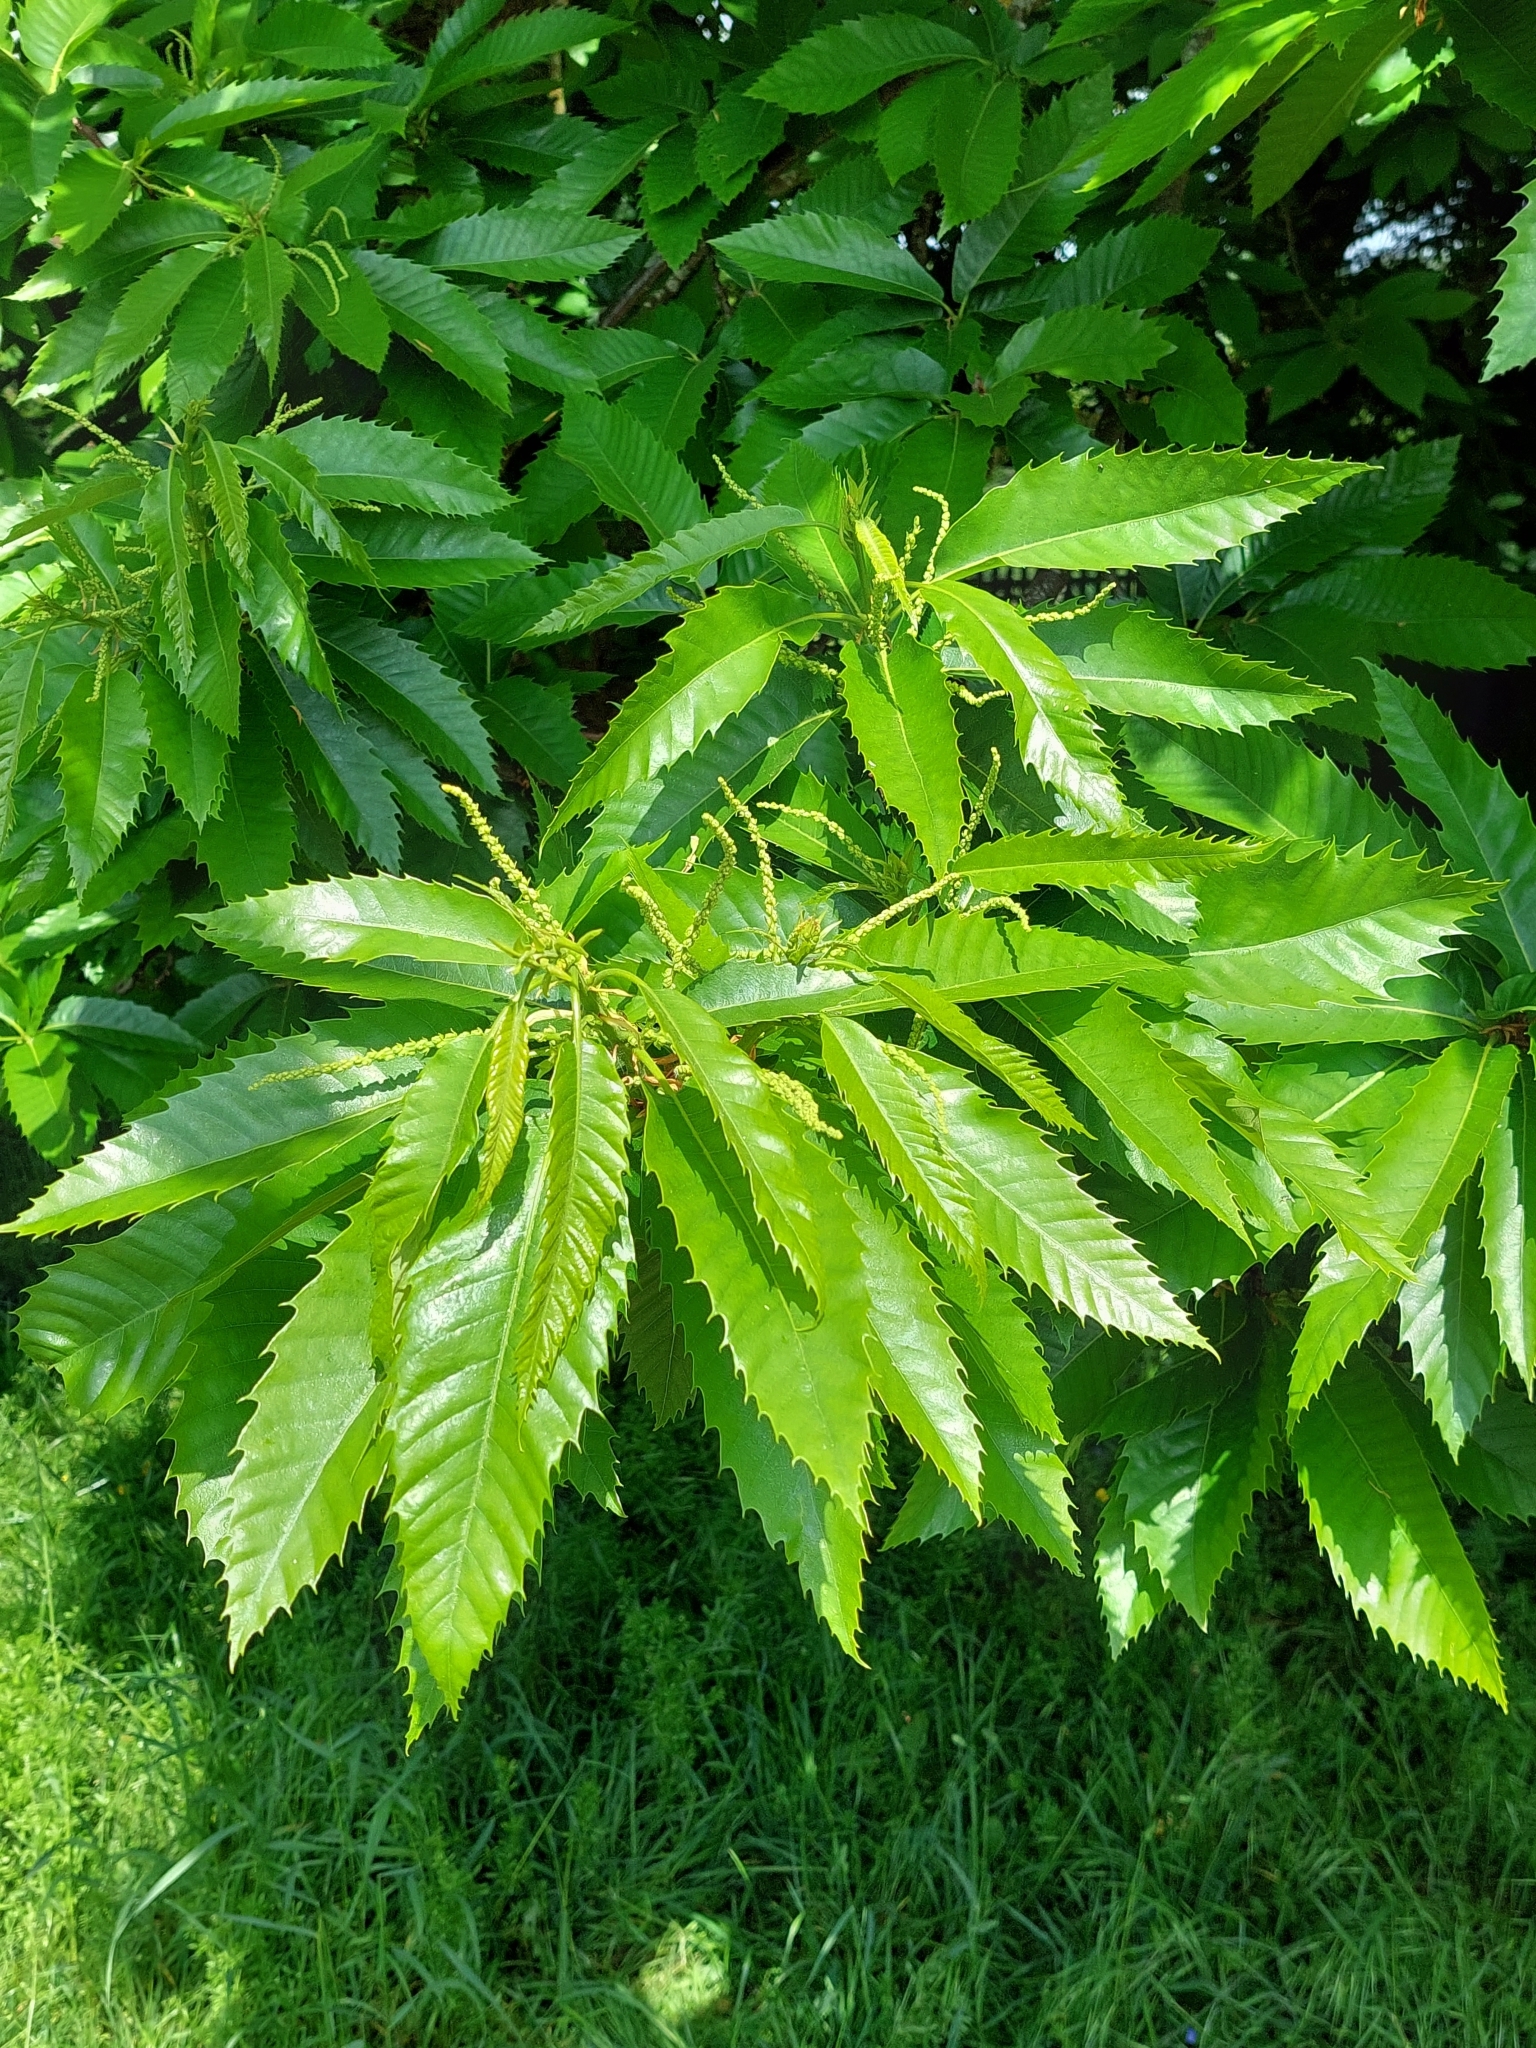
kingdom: Plantae
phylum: Tracheophyta
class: Magnoliopsida
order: Fagales
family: Fagaceae
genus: Castanea
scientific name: Castanea sativa
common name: Sweet chestnut
